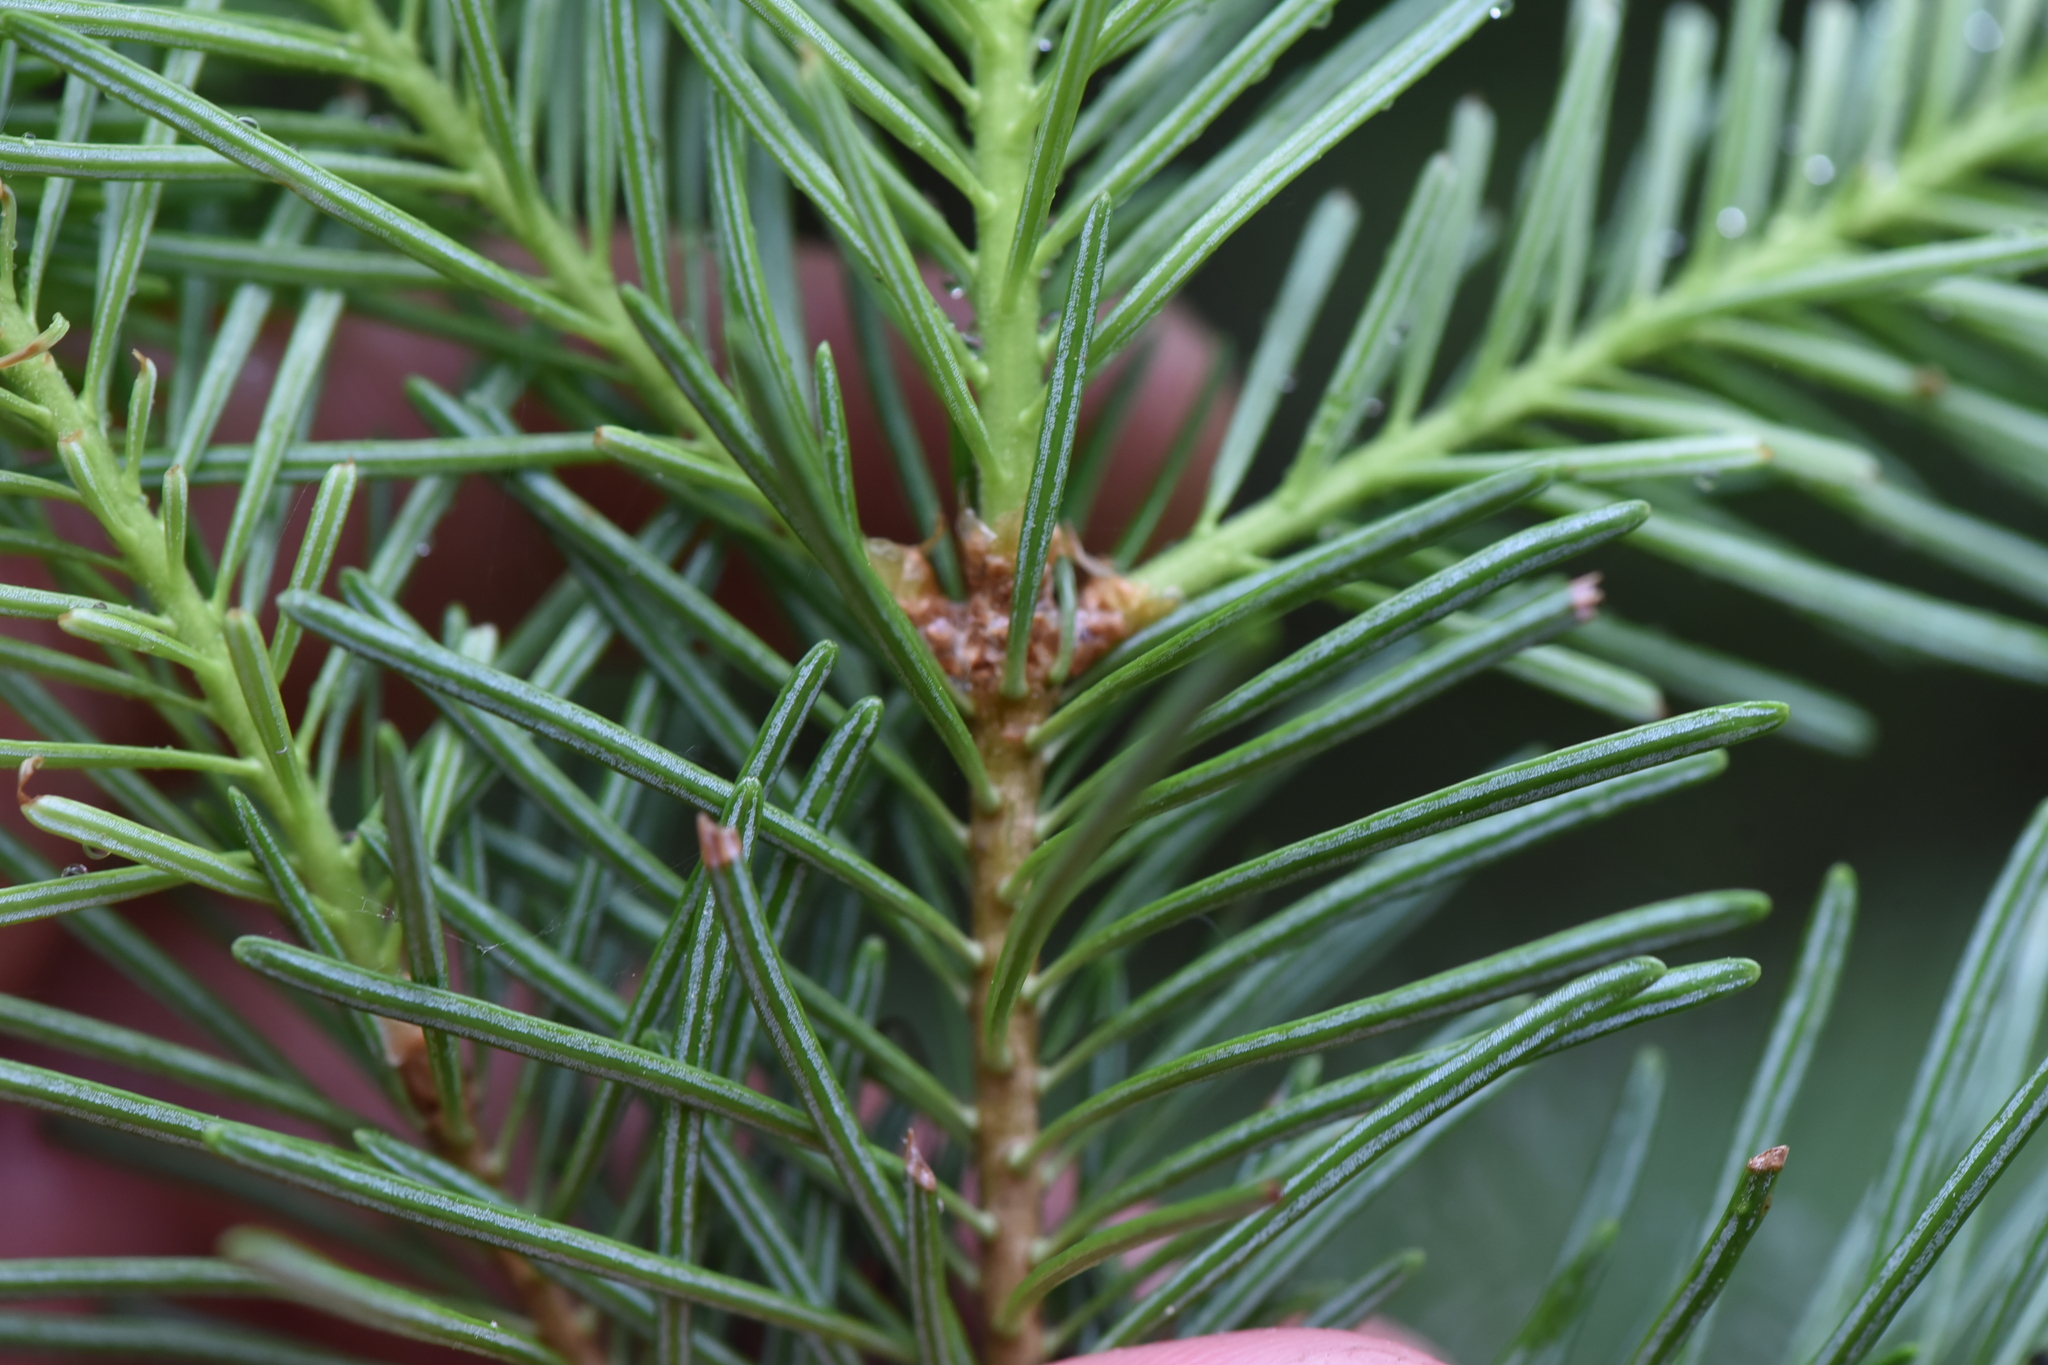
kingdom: Plantae
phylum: Tracheophyta
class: Pinopsida
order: Pinales
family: Pinaceae
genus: Abies
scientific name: Abies lasiocarpa
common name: Subalpine fir
